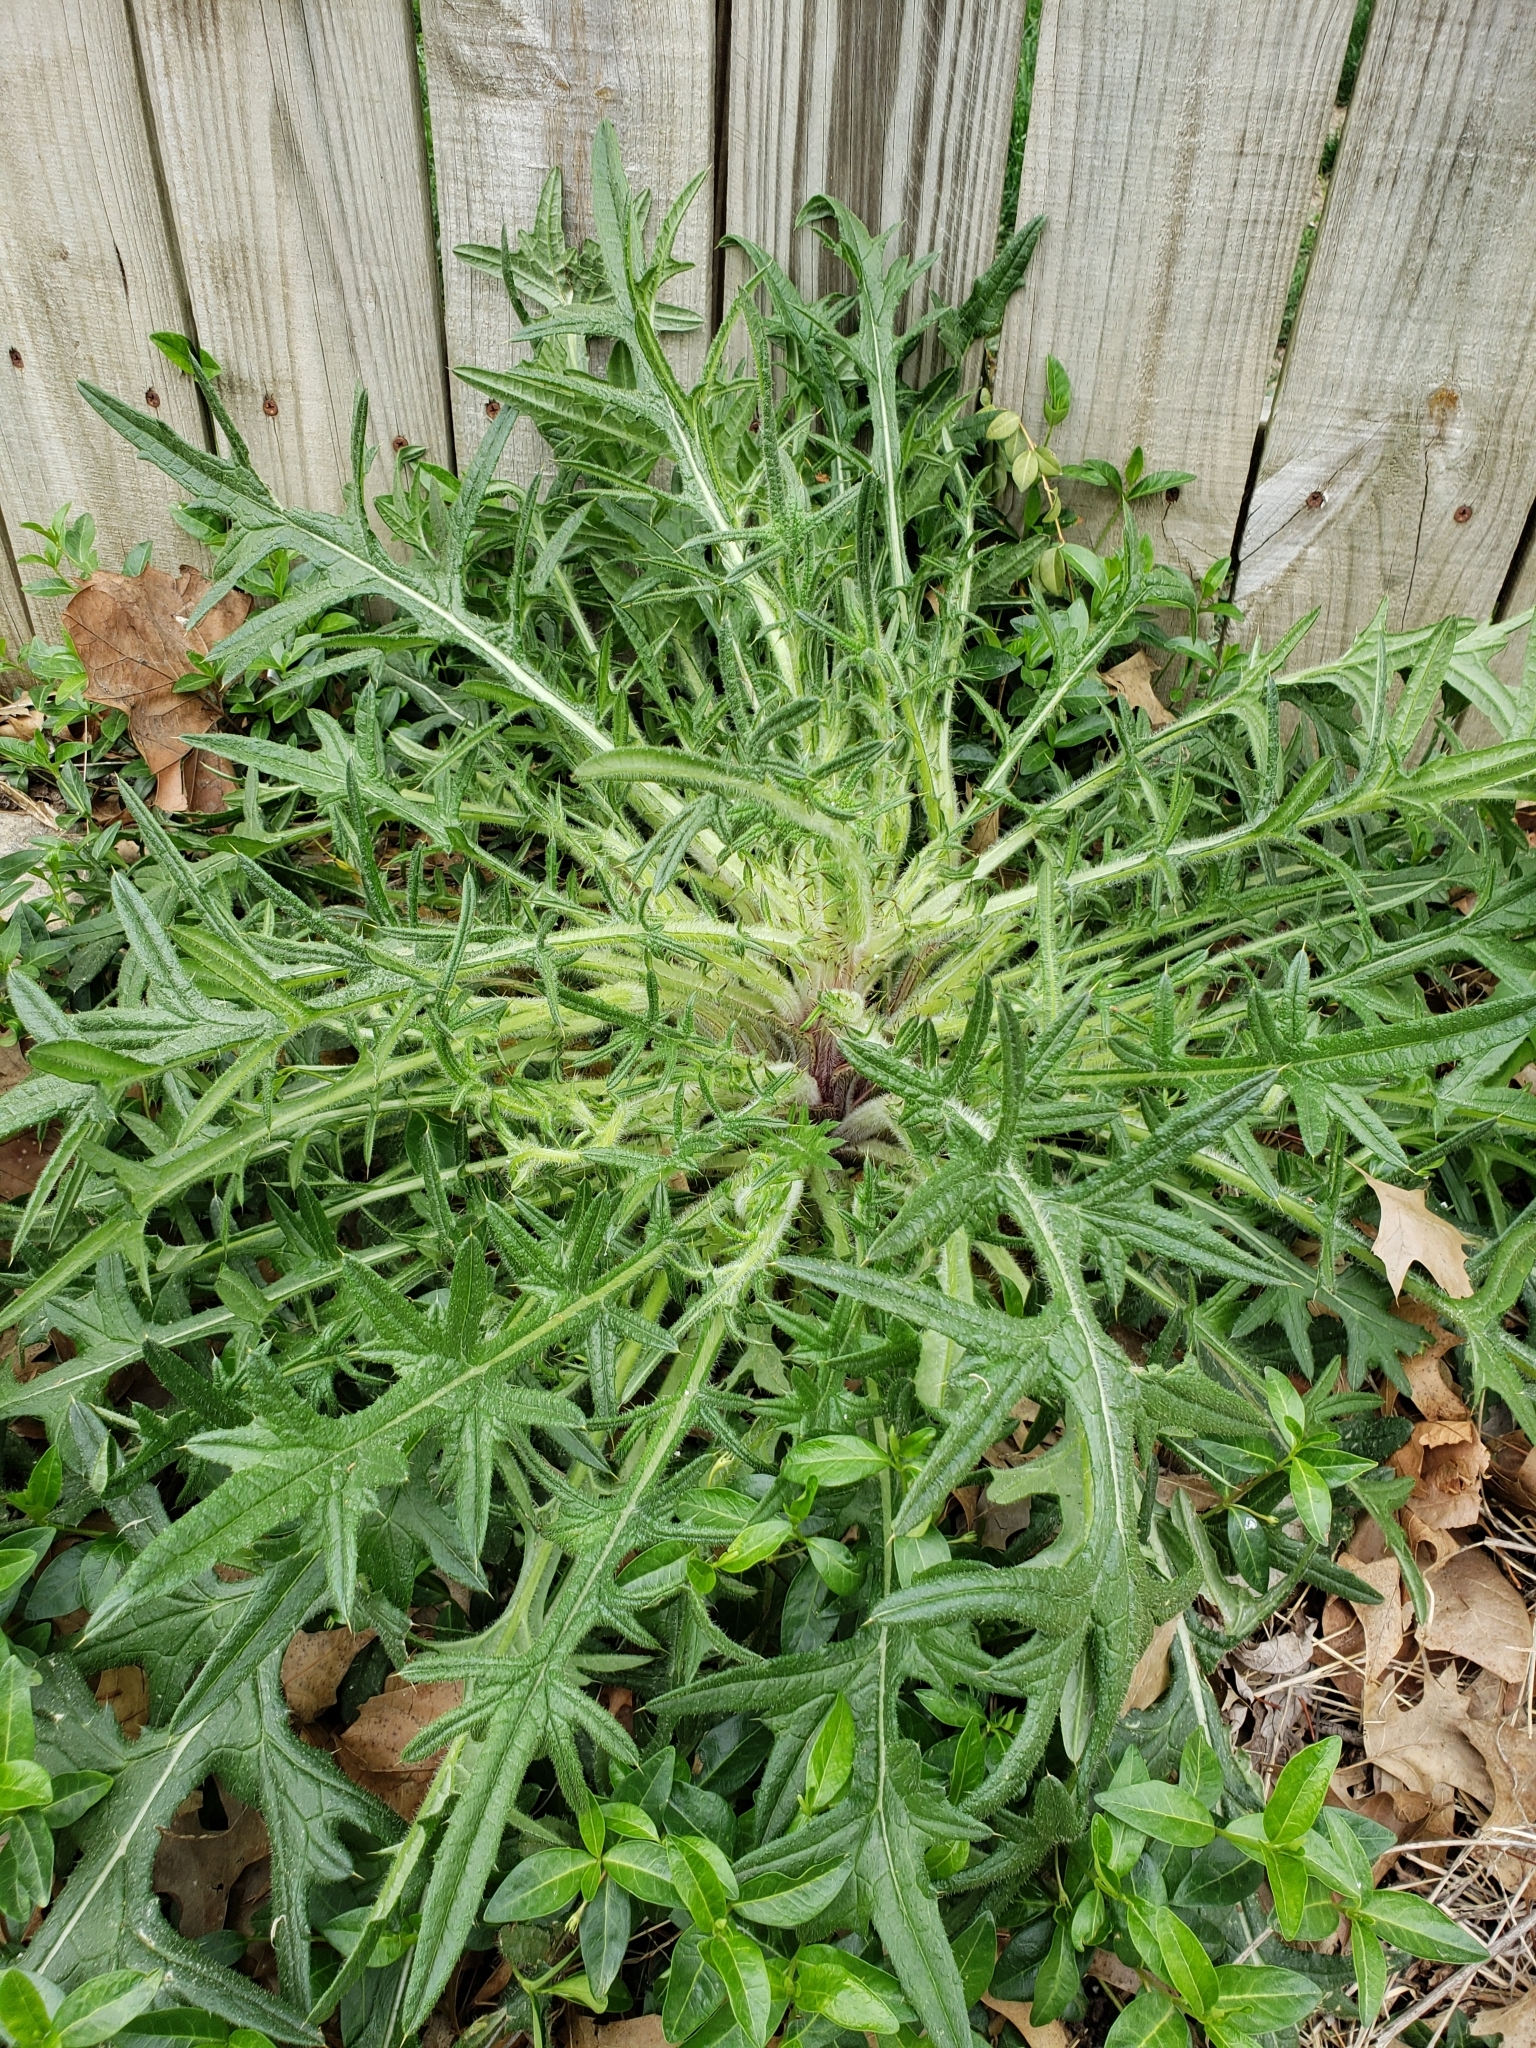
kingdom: Plantae
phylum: Tracheophyta
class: Magnoliopsida
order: Asterales
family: Asteraceae
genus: Cirsium
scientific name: Cirsium vulgare
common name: Bull thistle
